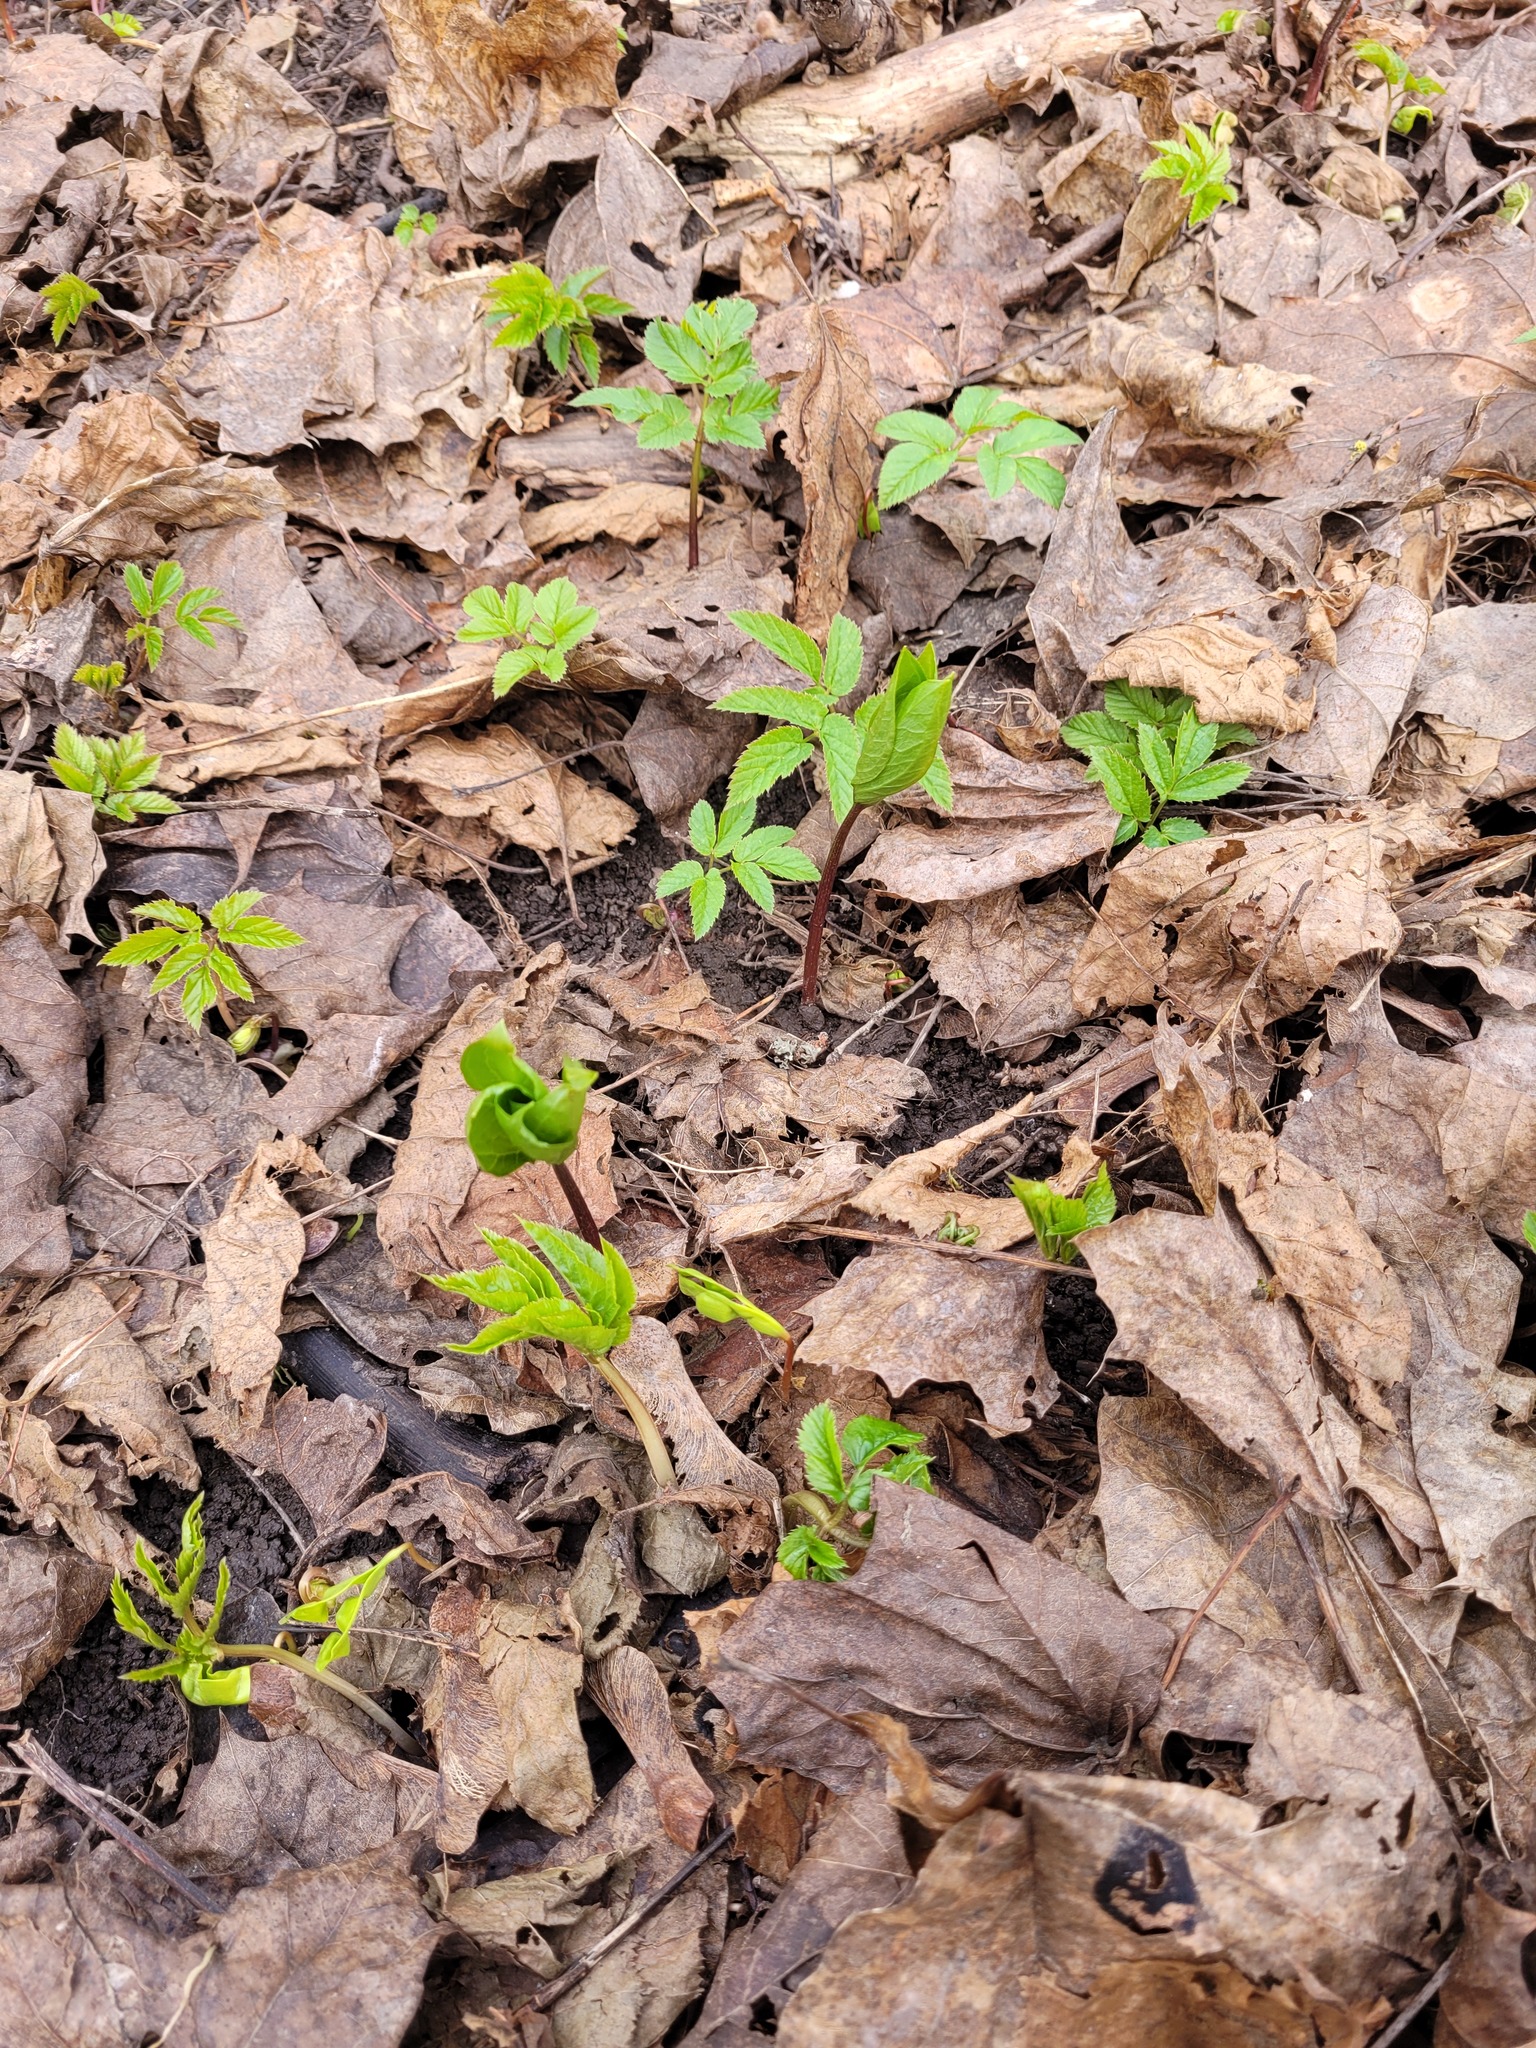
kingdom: Plantae
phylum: Tracheophyta
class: Liliopsida
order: Liliales
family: Melanthiaceae
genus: Paris
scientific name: Paris quadrifolia
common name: Herb-paris
